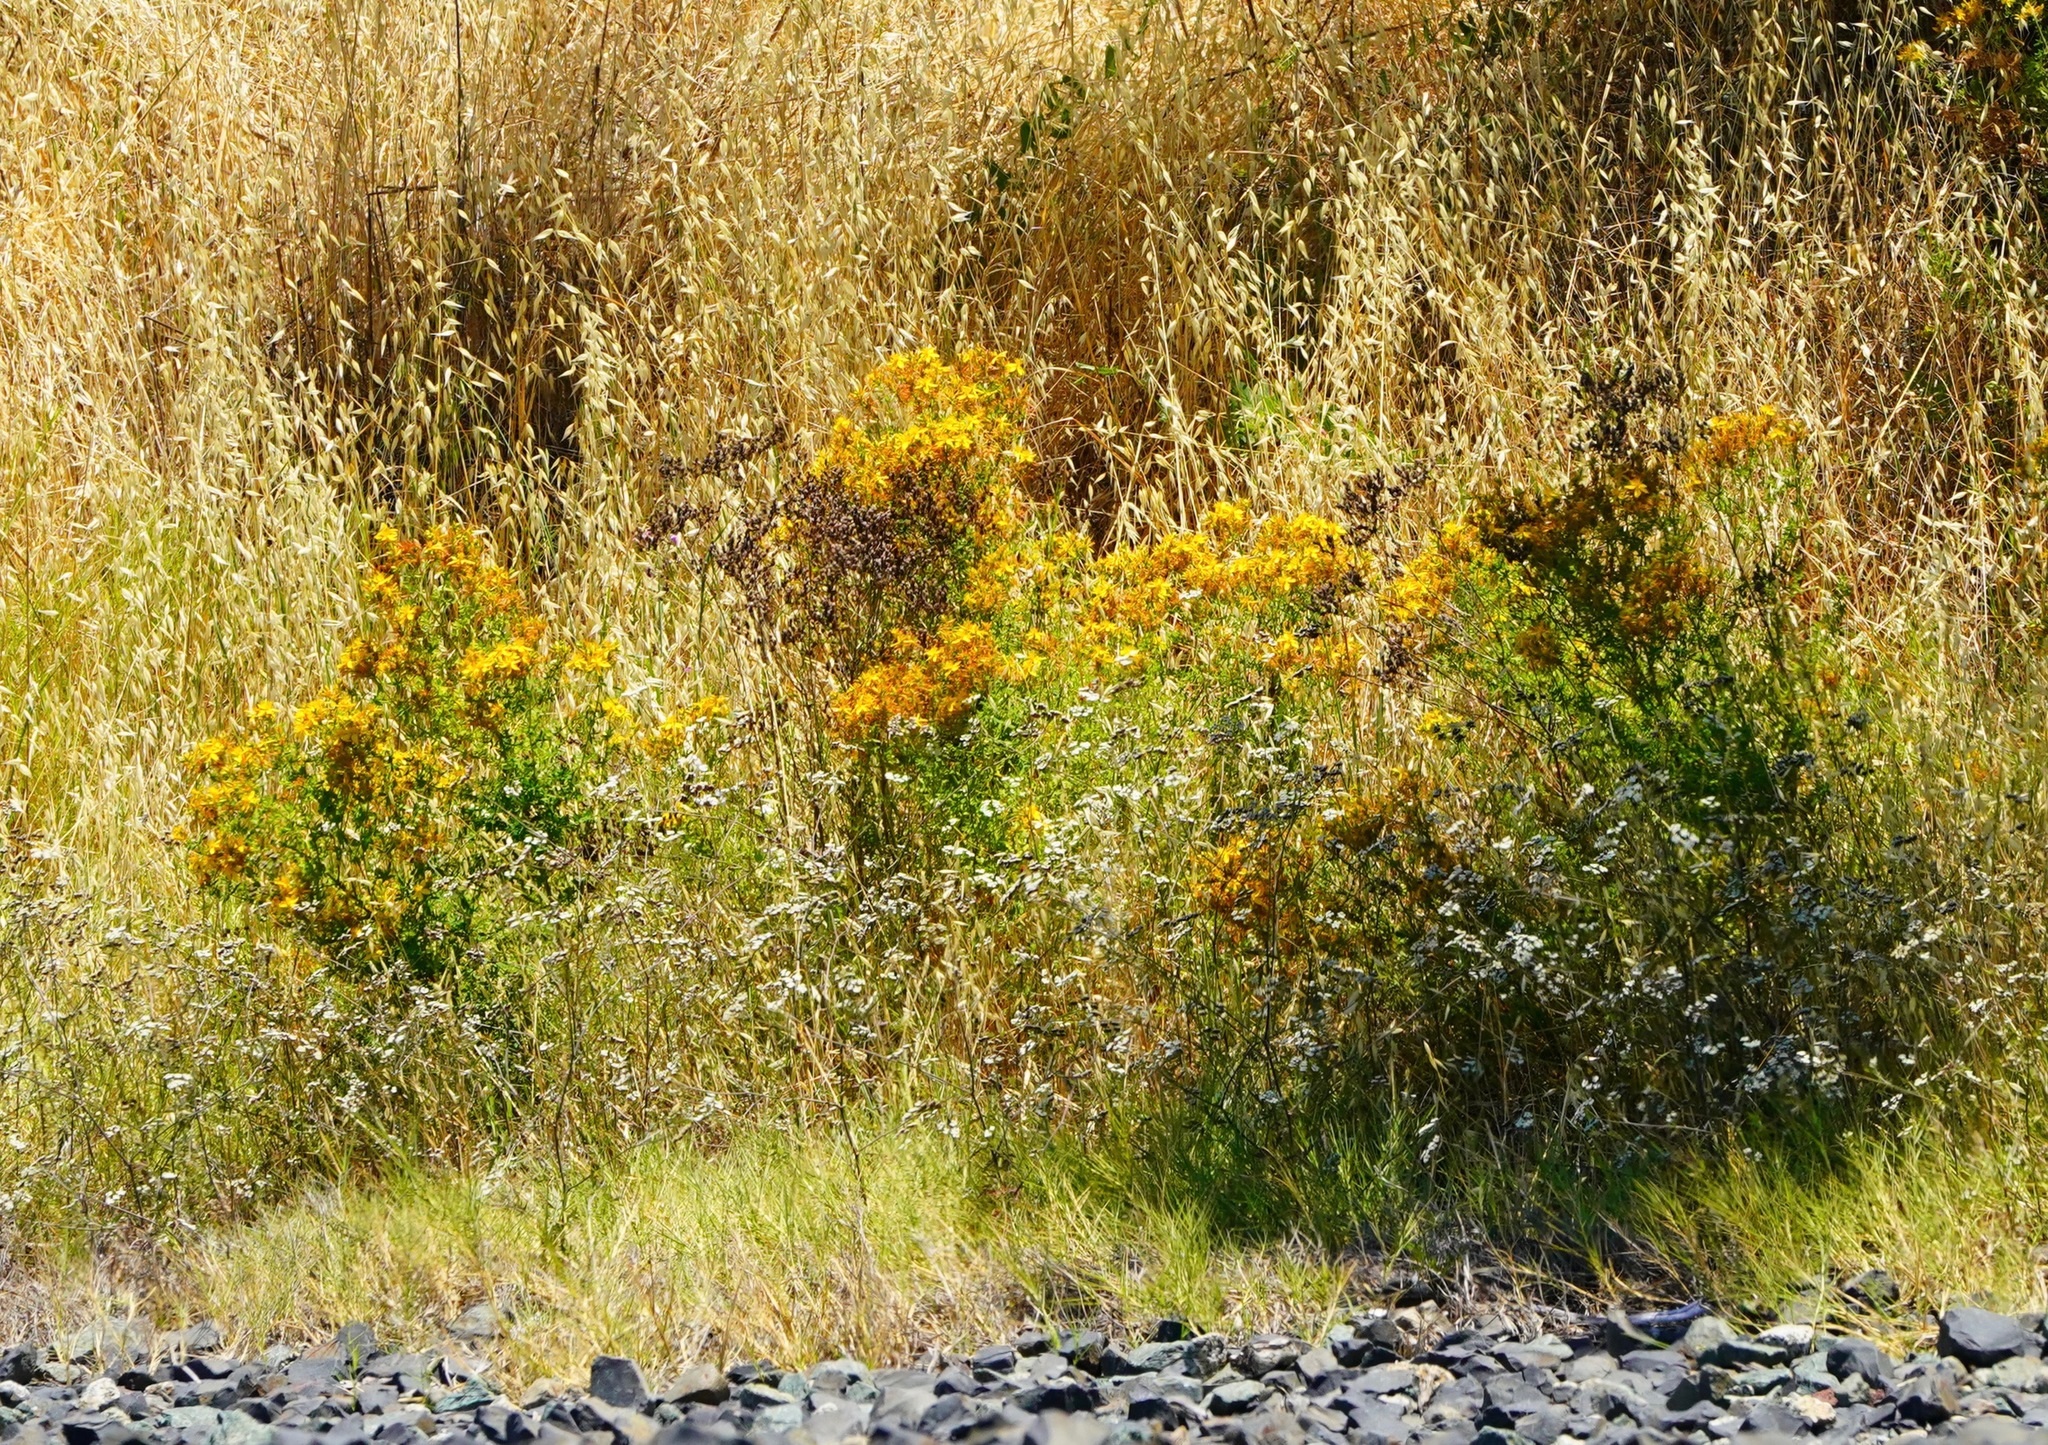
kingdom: Plantae
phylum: Tracheophyta
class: Magnoliopsida
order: Malpighiales
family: Hypericaceae
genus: Hypericum
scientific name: Hypericum perforatum
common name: Common st. johnswort
